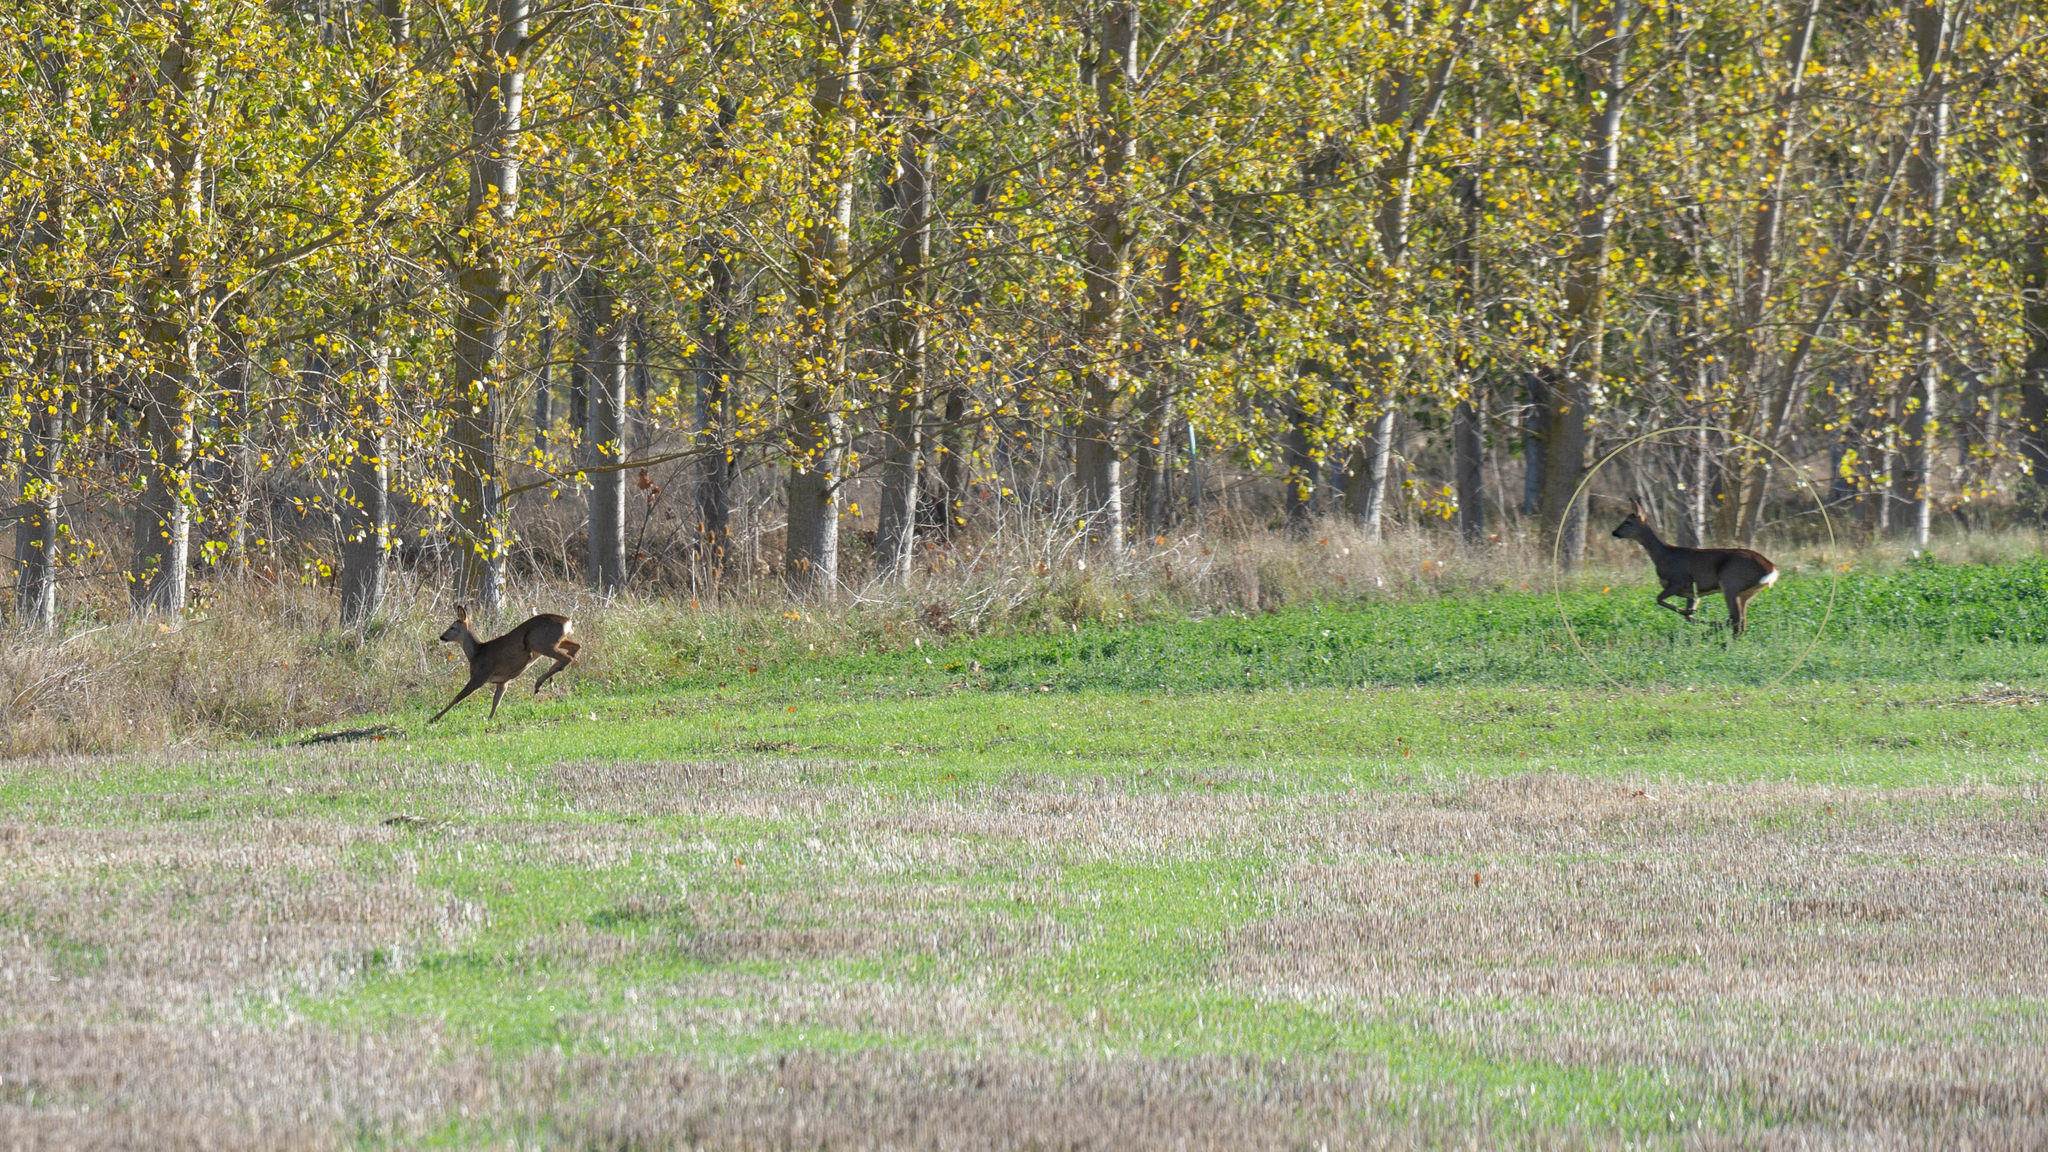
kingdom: Animalia
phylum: Chordata
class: Mammalia
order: Artiodactyla
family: Cervidae
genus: Capreolus
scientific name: Capreolus capreolus
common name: Western roe deer
